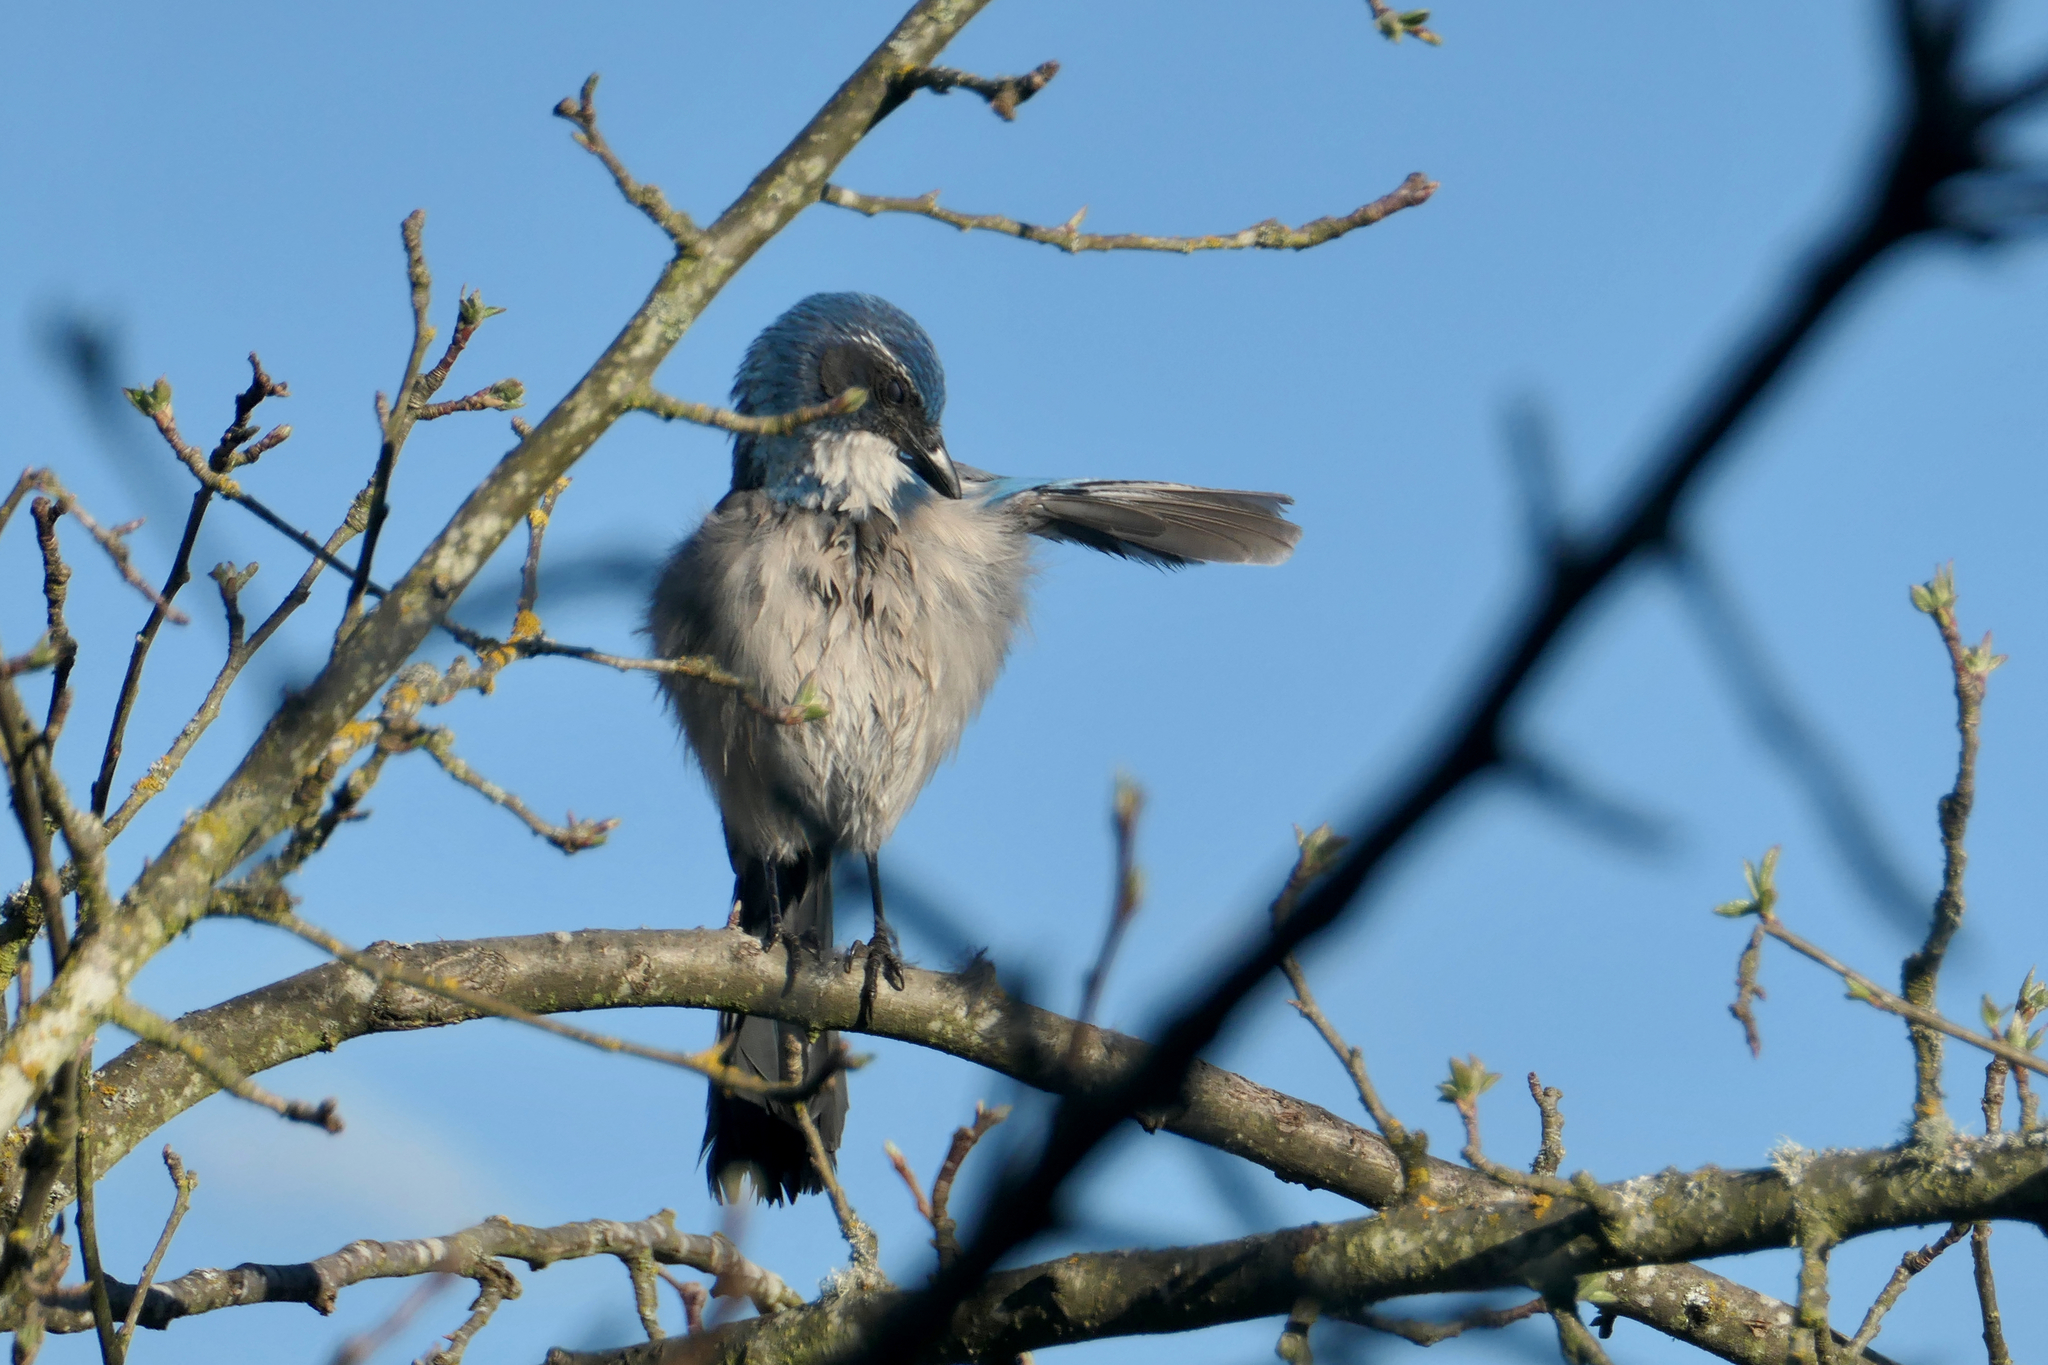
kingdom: Animalia
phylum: Chordata
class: Aves
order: Passeriformes
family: Corvidae
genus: Aphelocoma
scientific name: Aphelocoma californica
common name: California scrub-jay
